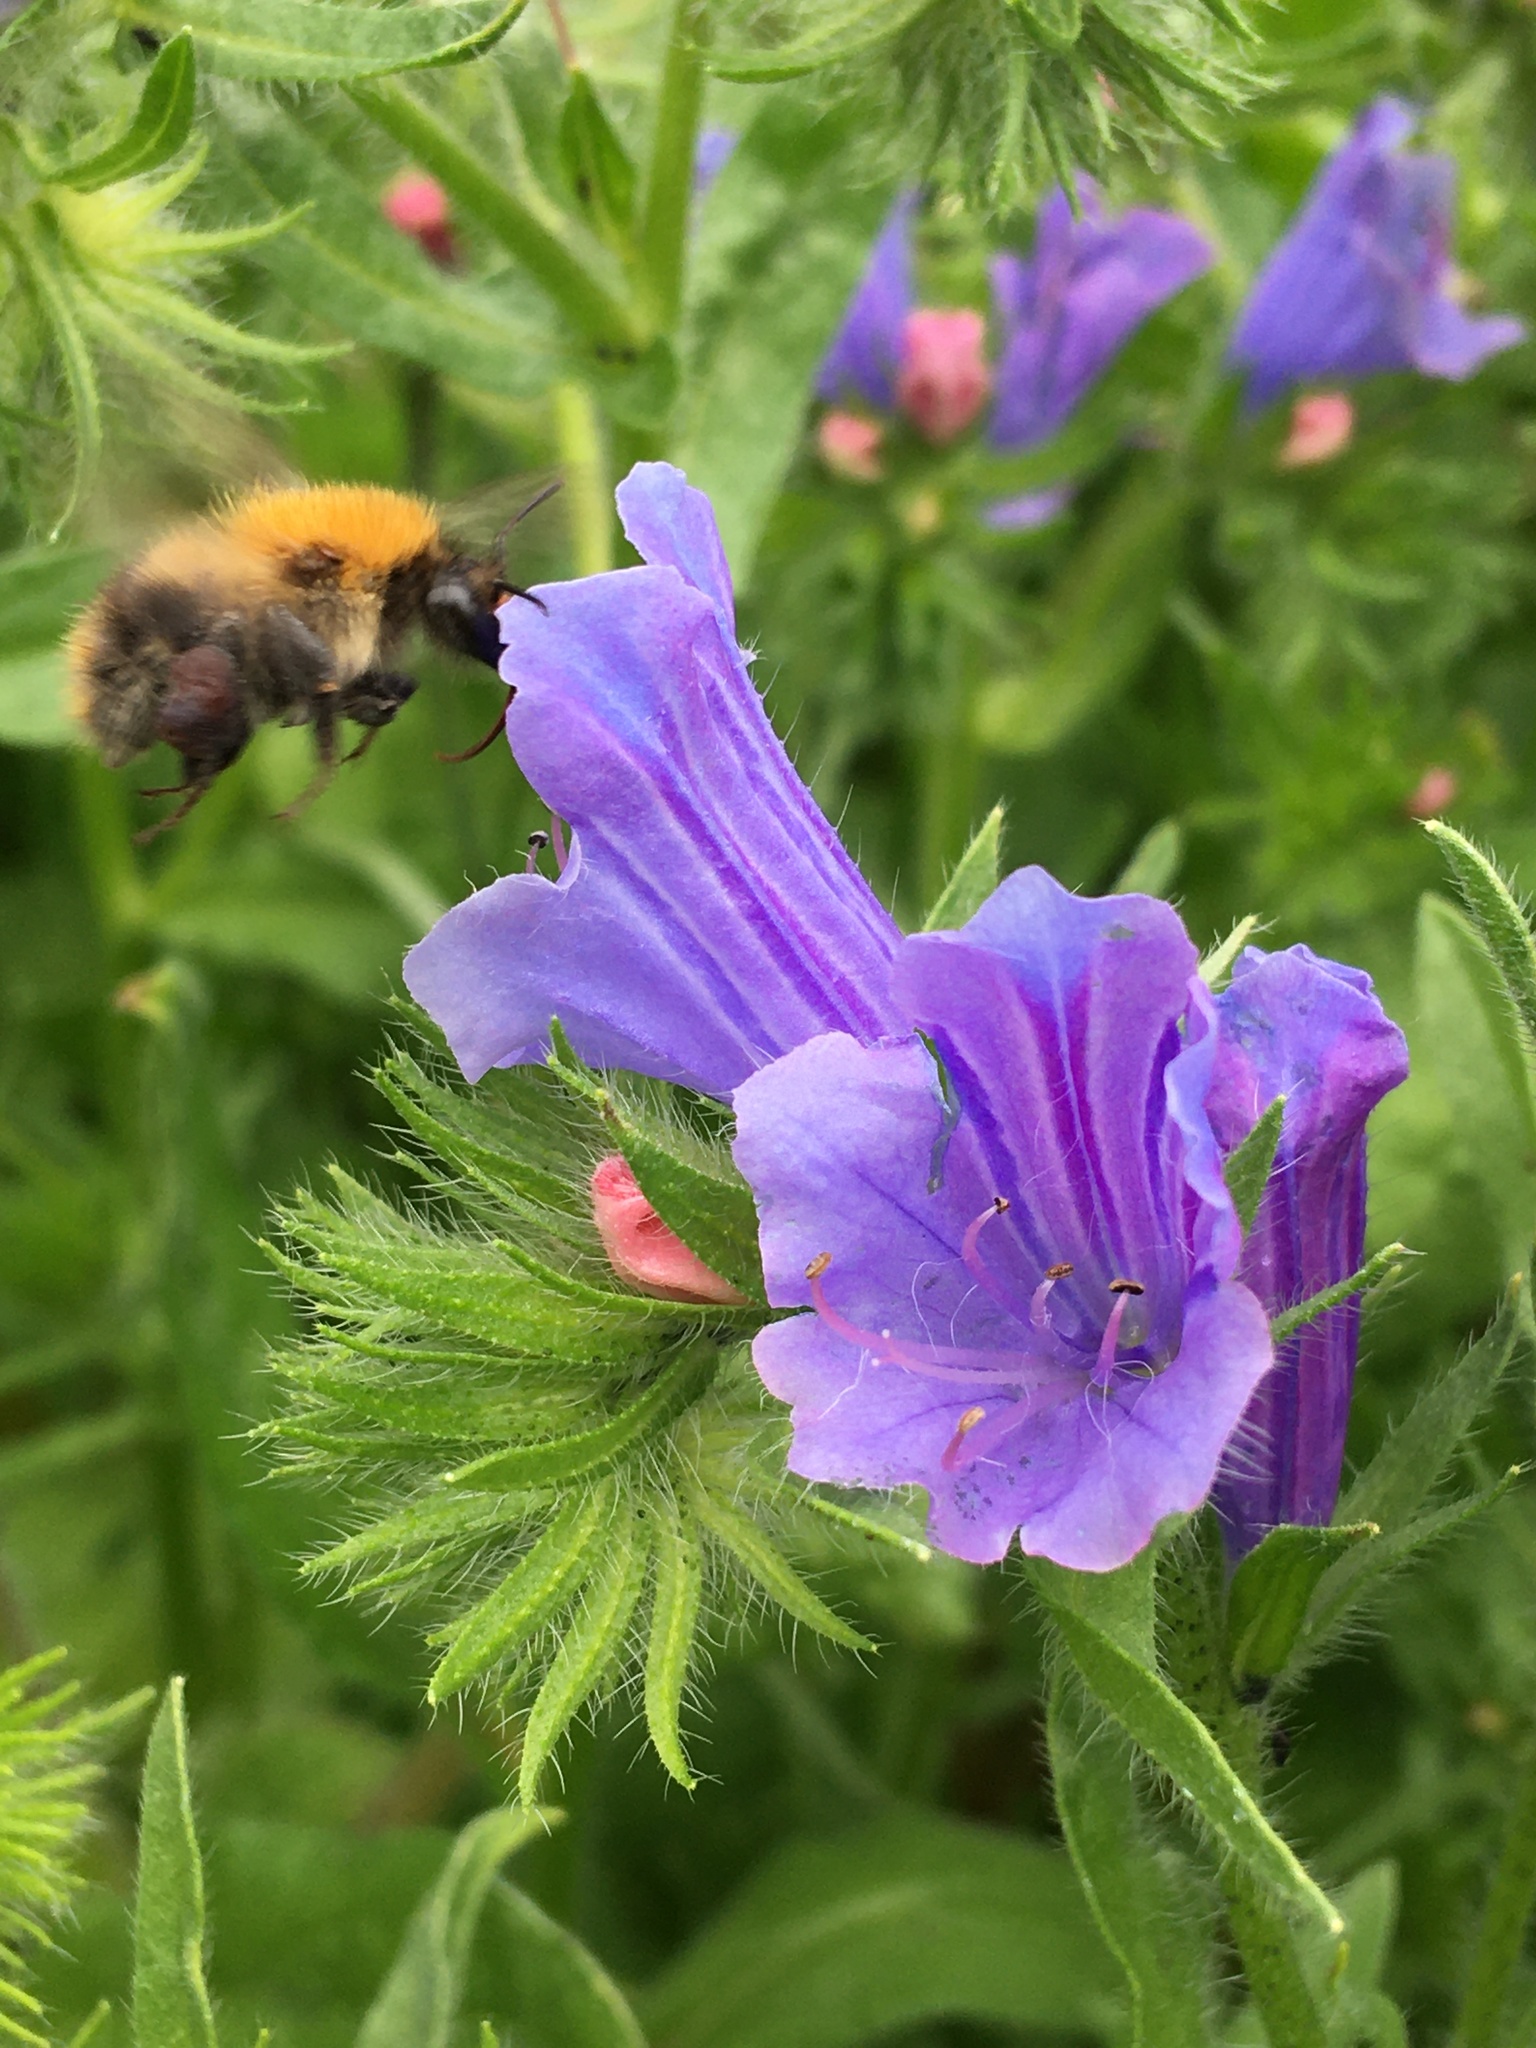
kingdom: Animalia
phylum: Arthropoda
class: Insecta
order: Hymenoptera
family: Apidae
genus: Bombus
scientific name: Bombus pascuorum
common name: Common carder bee
